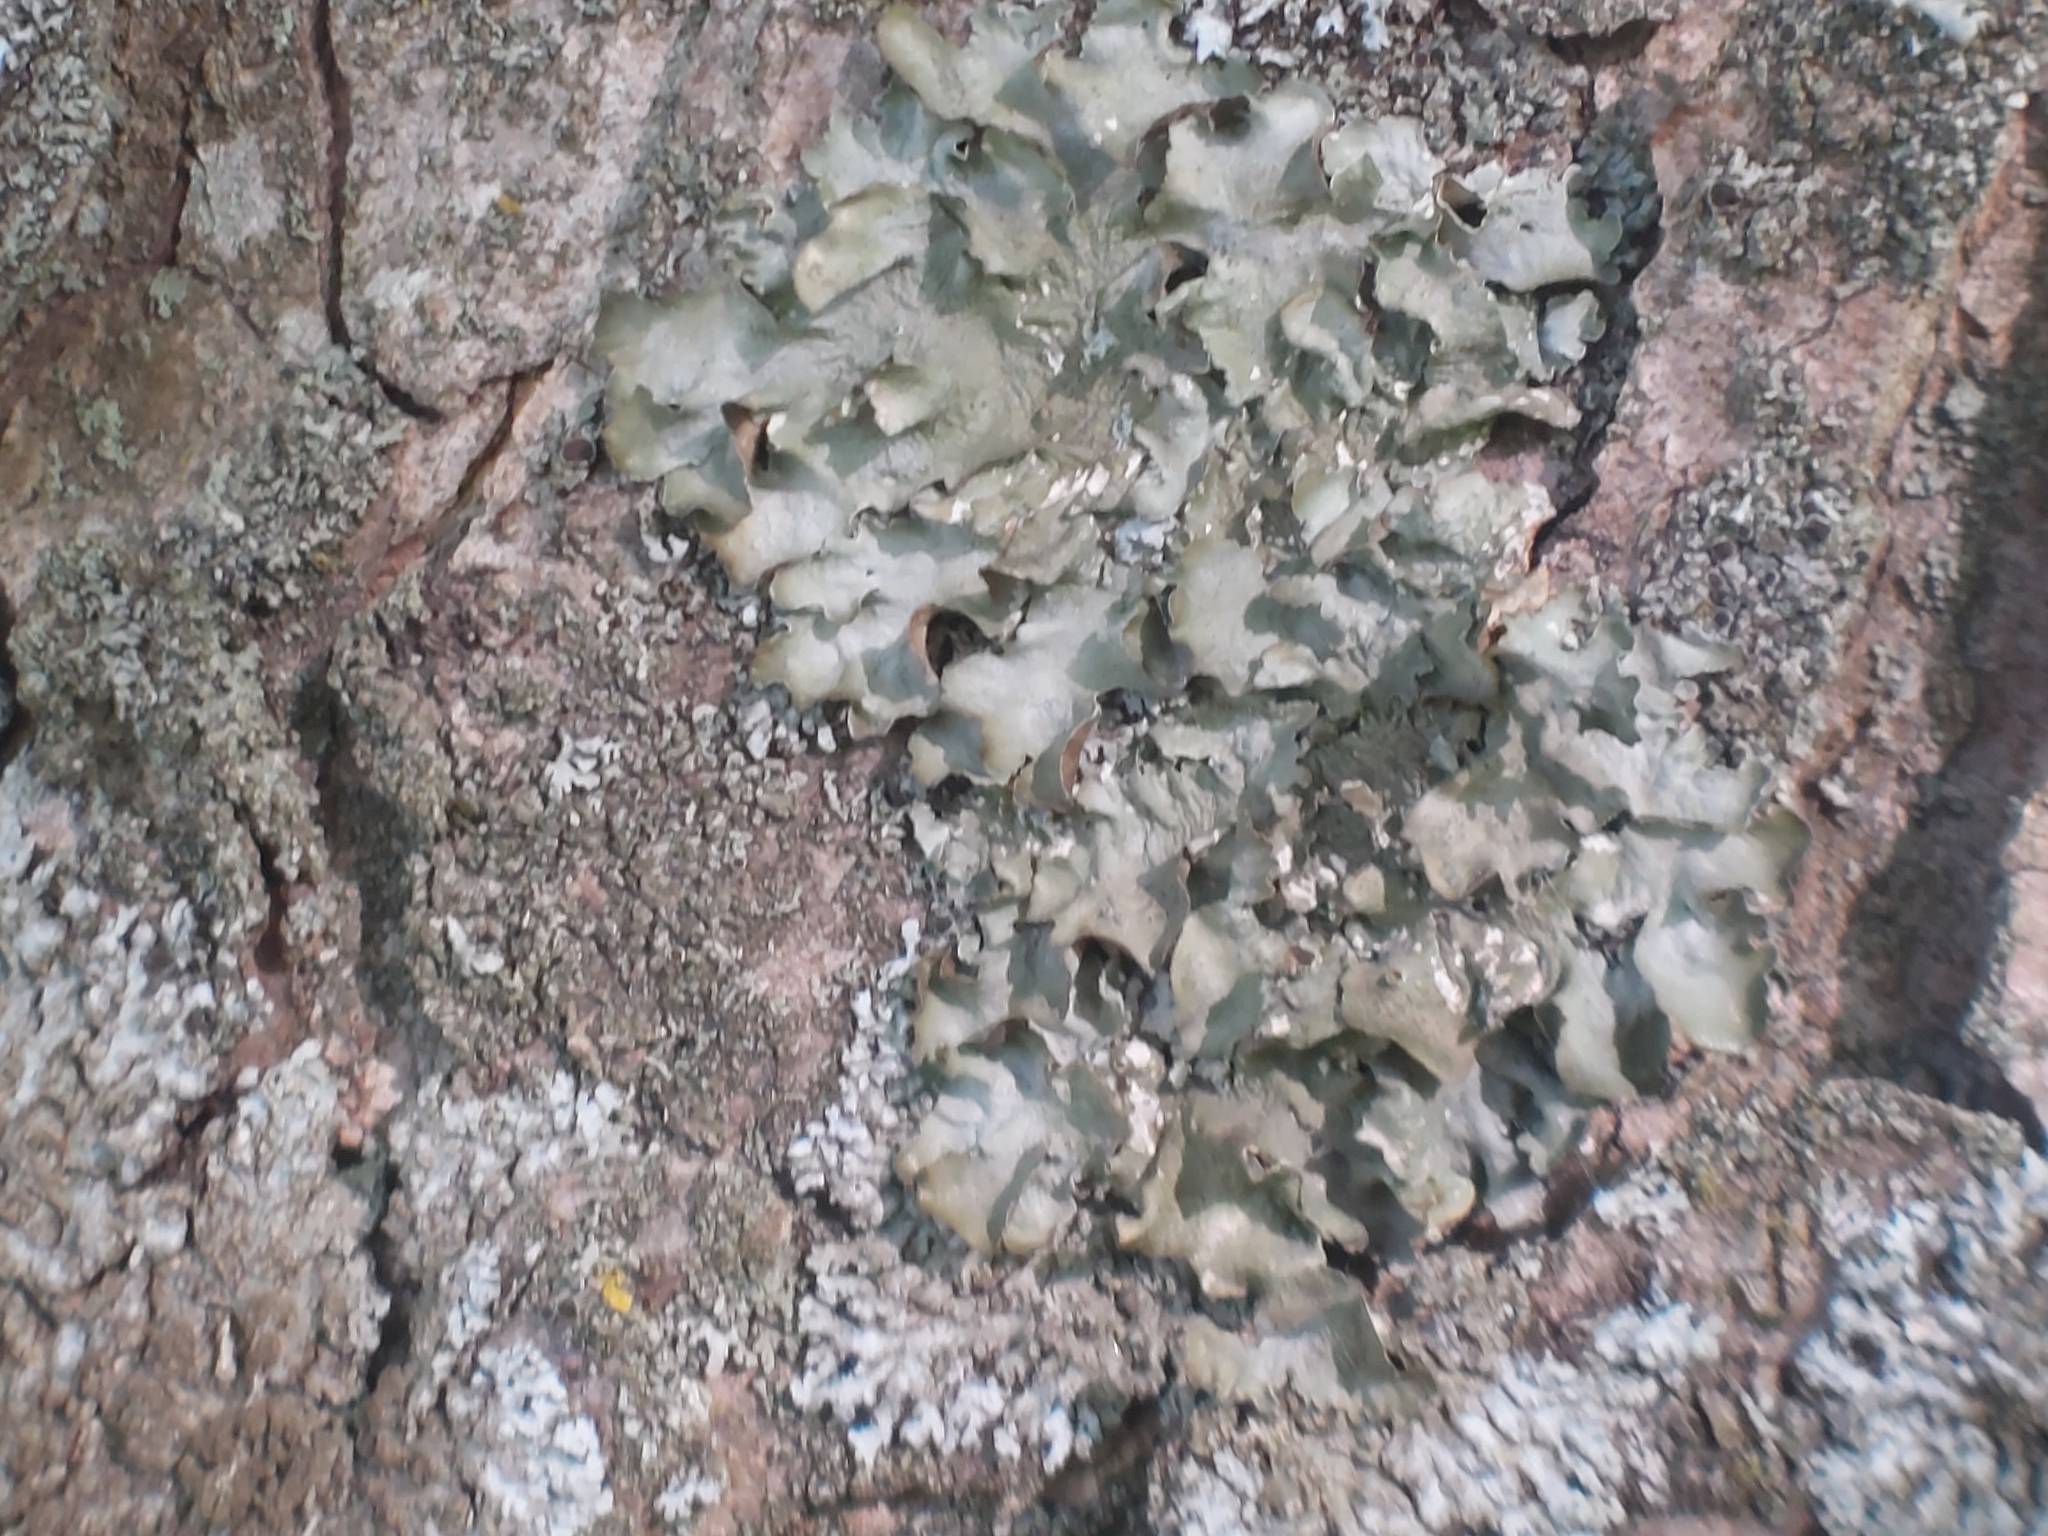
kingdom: Fungi
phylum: Ascomycota
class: Lecanoromycetes
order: Lecanorales
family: Parmeliaceae
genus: Pleurosticta
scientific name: Pleurosticta acetabulum
